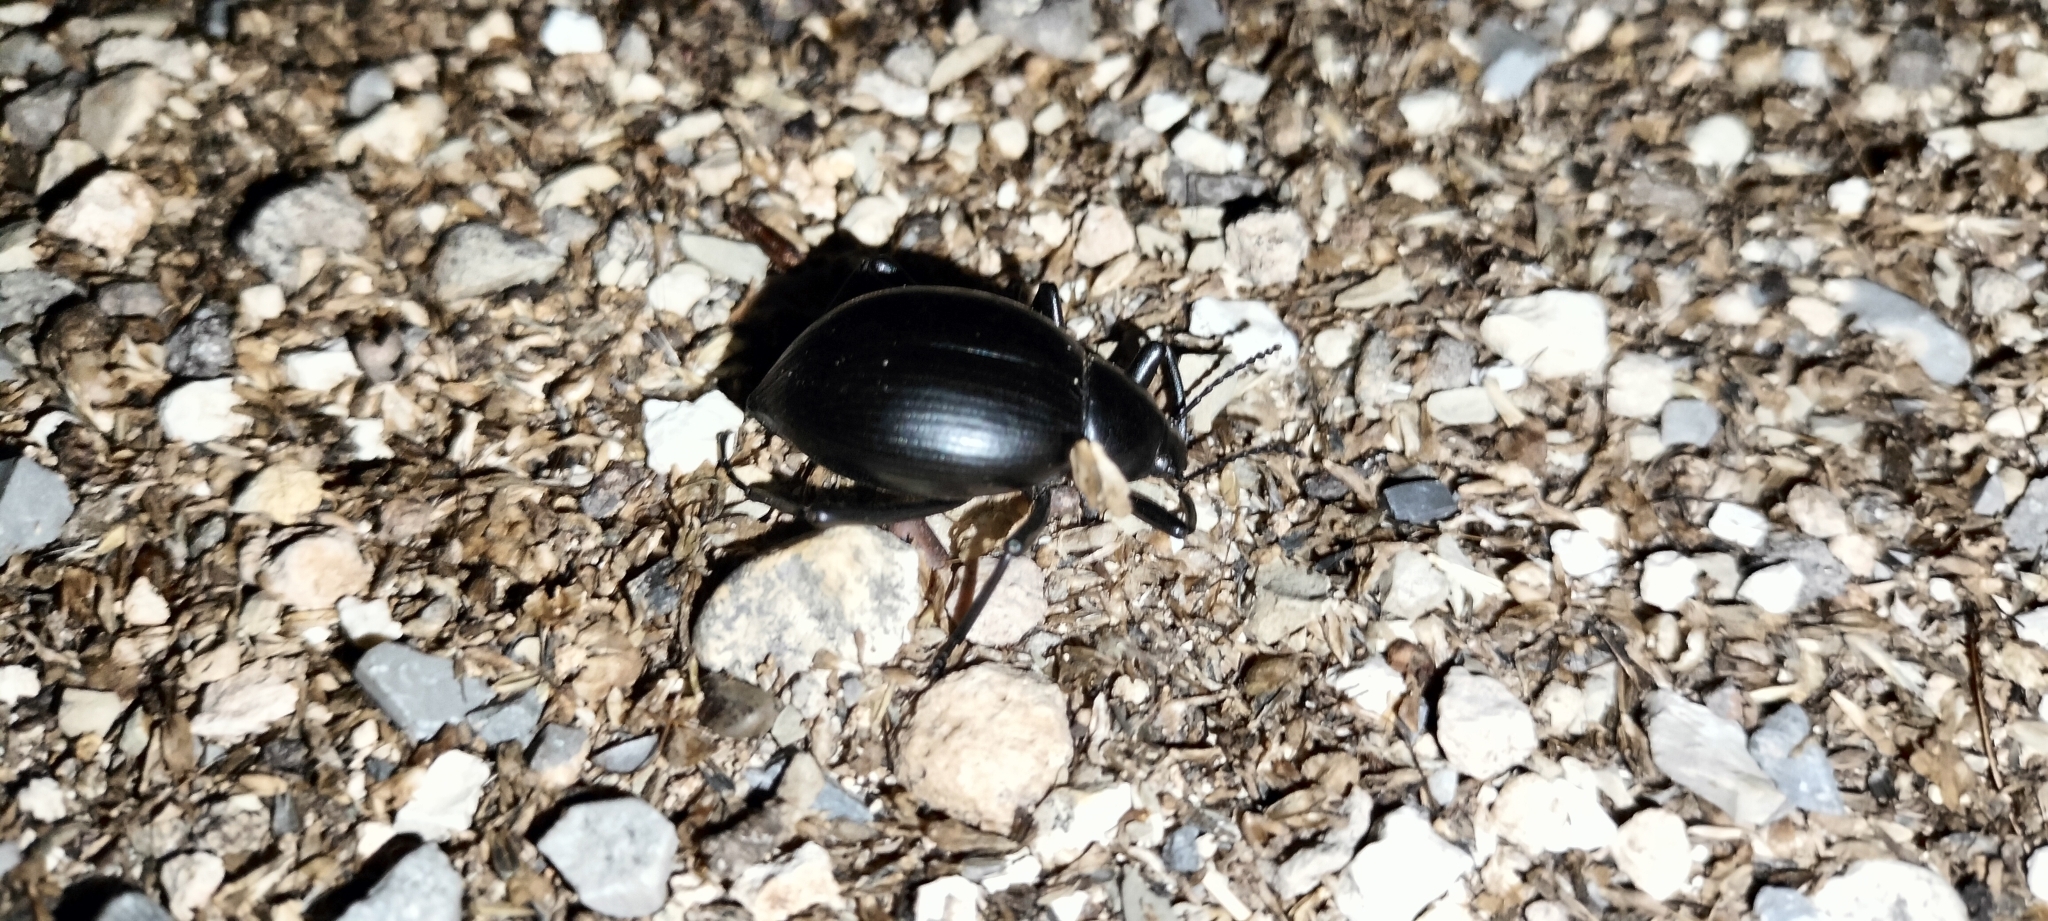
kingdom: Animalia
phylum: Arthropoda
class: Insecta
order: Coleoptera
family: Tenebrionidae
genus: Eleodes
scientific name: Eleodes spinipes
